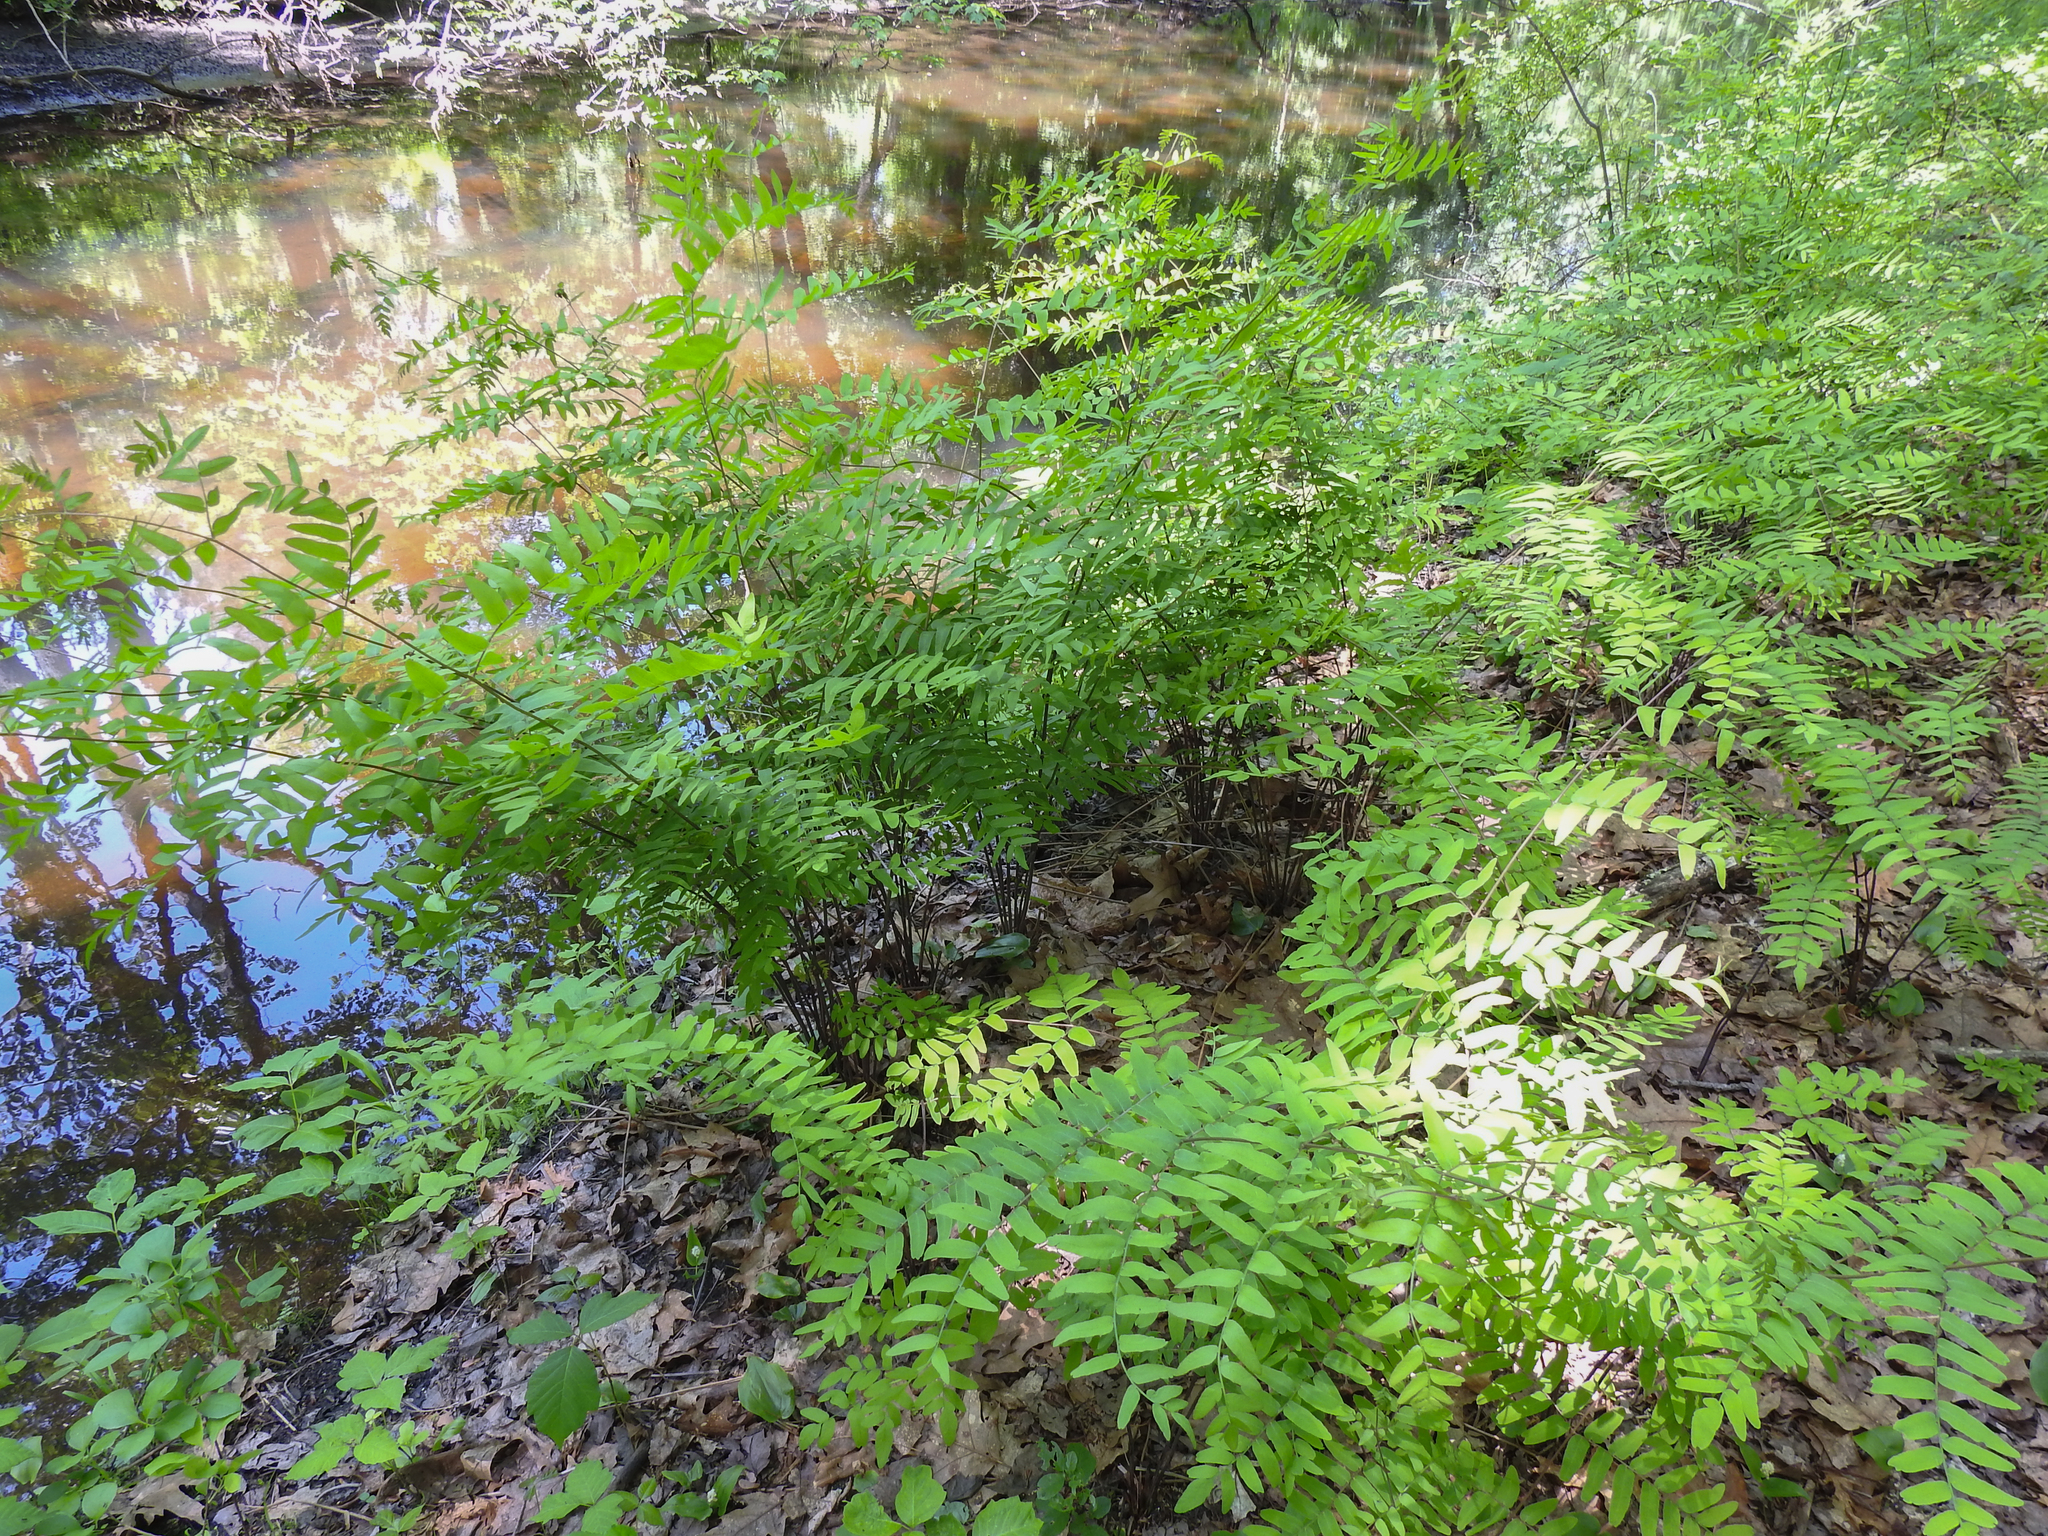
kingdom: Plantae
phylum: Tracheophyta
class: Polypodiopsida
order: Osmundales
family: Osmundaceae
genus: Osmunda
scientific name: Osmunda spectabilis
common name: American royal fern
